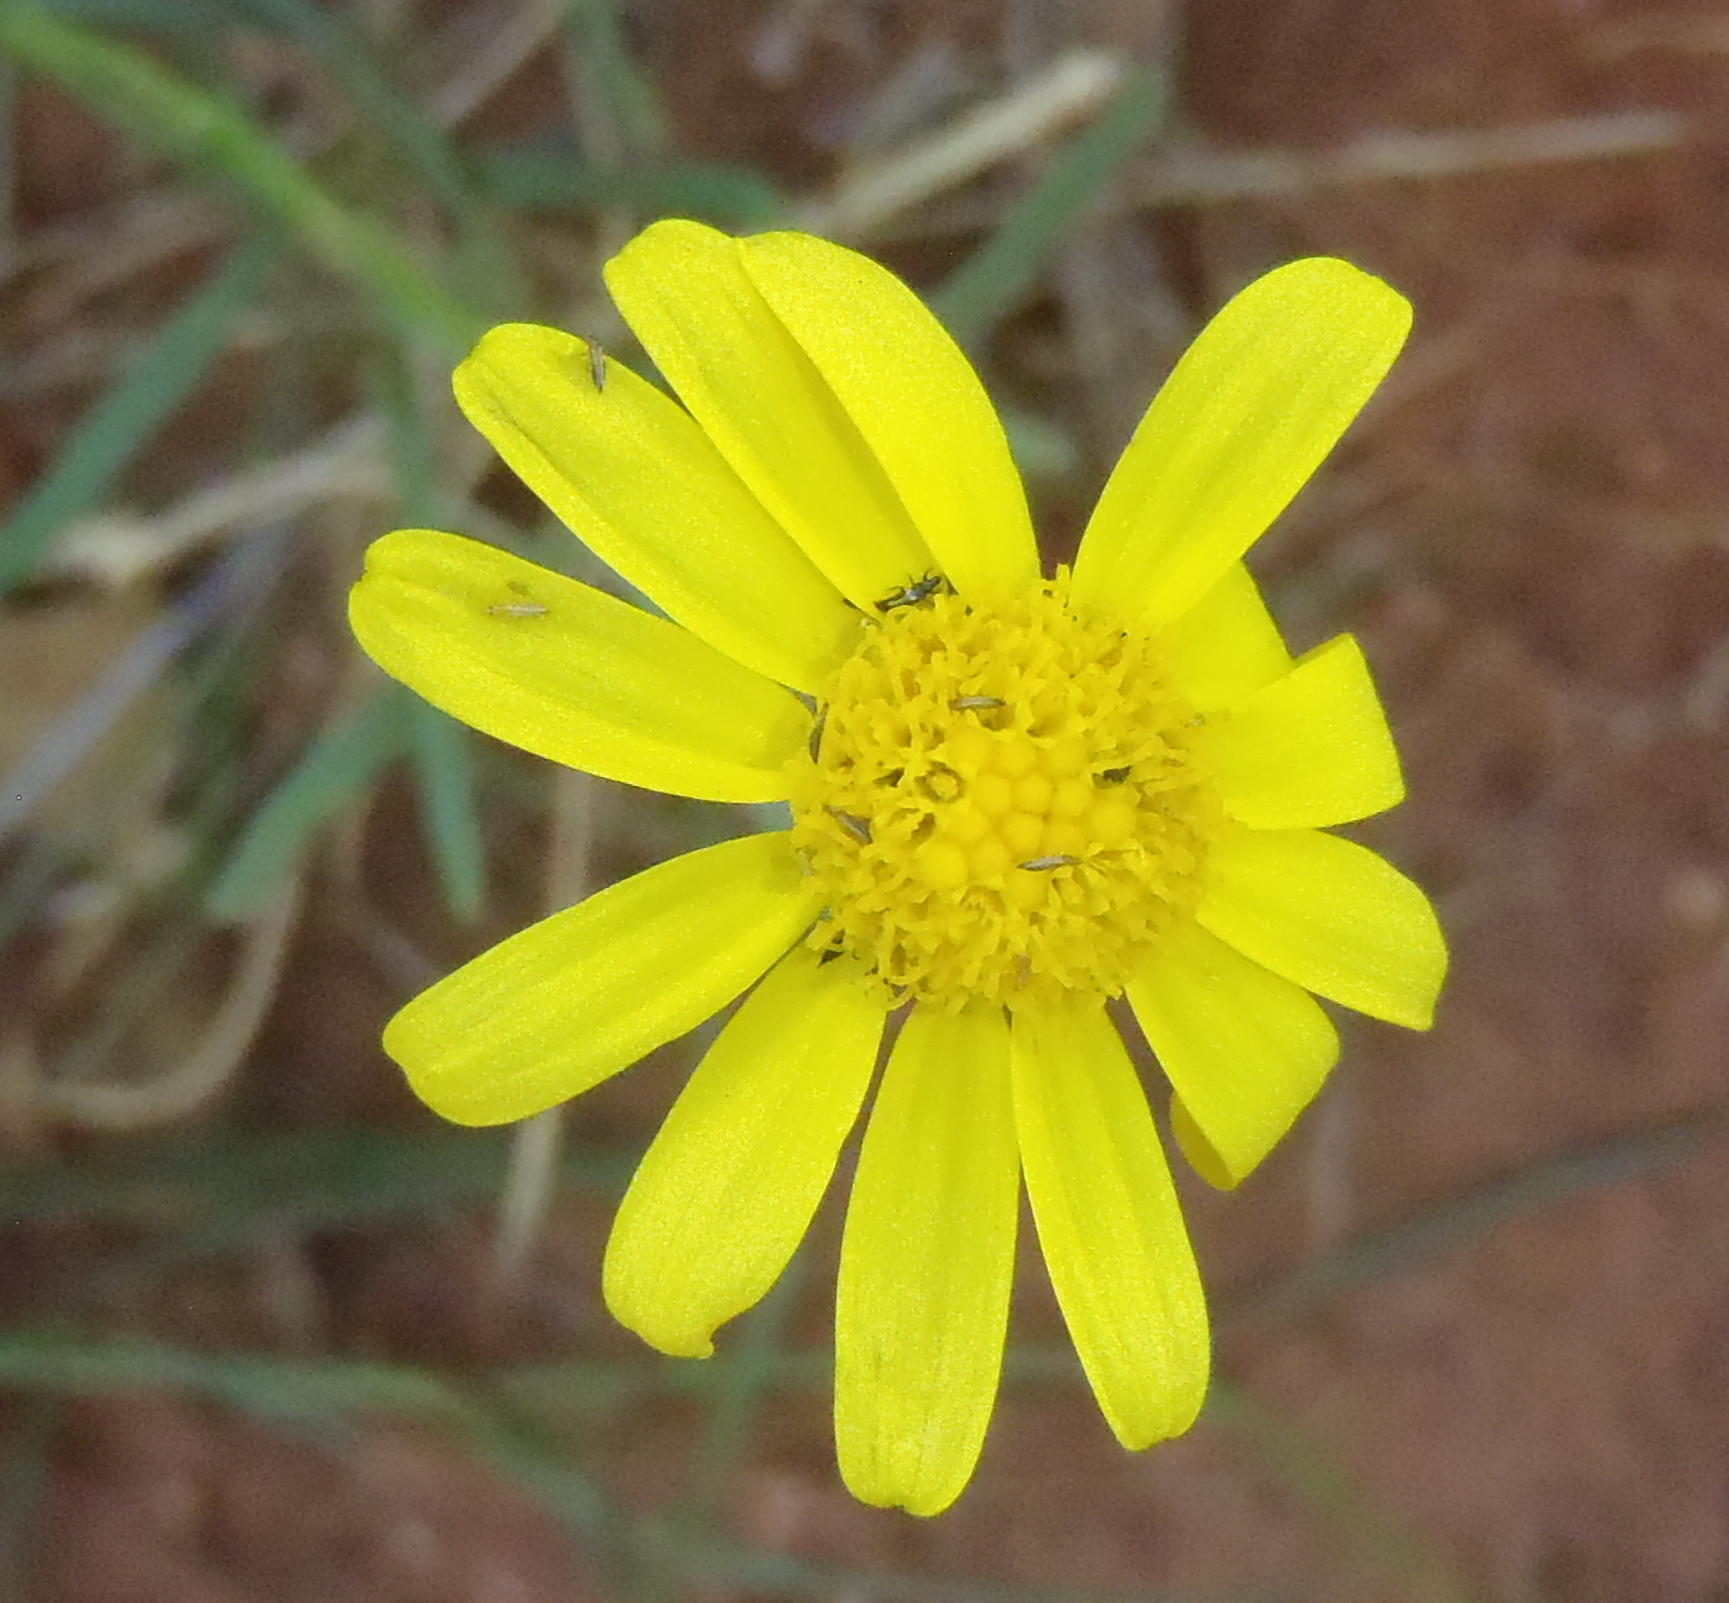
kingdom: Plantae
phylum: Tracheophyta
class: Magnoliopsida
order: Asterales
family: Asteraceae
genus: Senecio
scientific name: Senecio inaequidens
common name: Narrow-leaved ragwort
